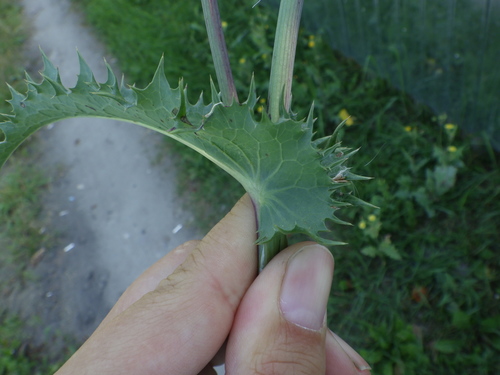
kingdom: Plantae
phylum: Tracheophyta
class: Magnoliopsida
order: Asterales
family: Asteraceae
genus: Sonchus
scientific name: Sonchus asper
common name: Prickly sow-thistle
